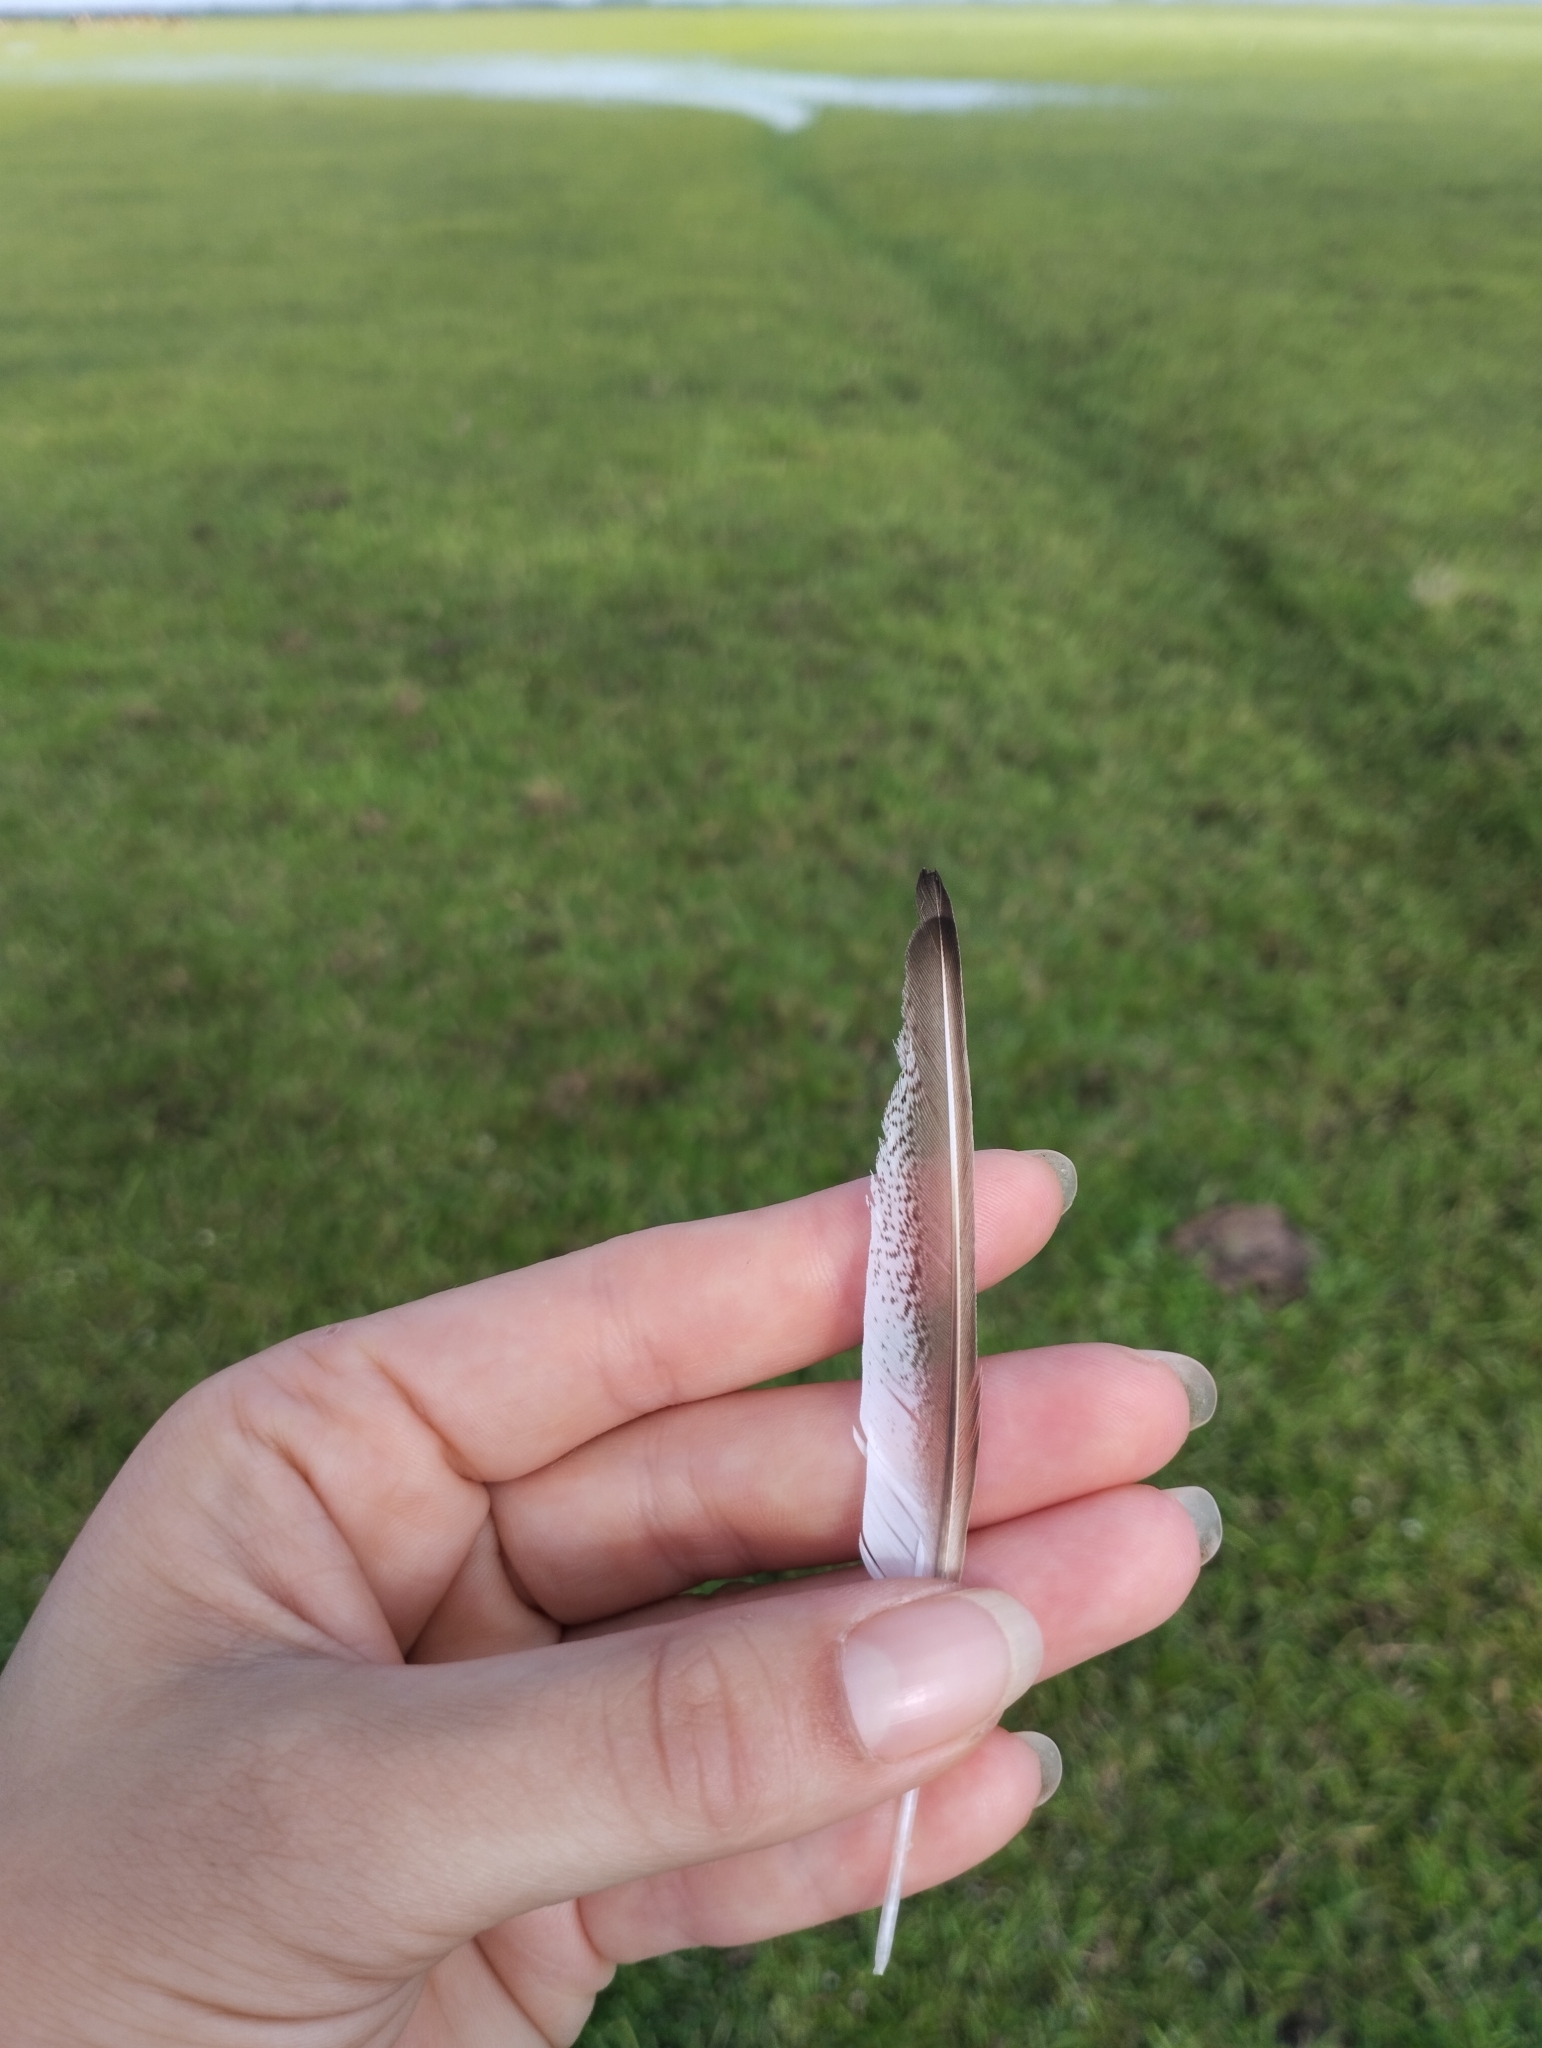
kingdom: Animalia
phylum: Chordata
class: Aves
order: Charadriiformes
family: Scolopacidae
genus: Calidris
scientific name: Calidris subruficollis
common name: Buff-breasted sandpiper
